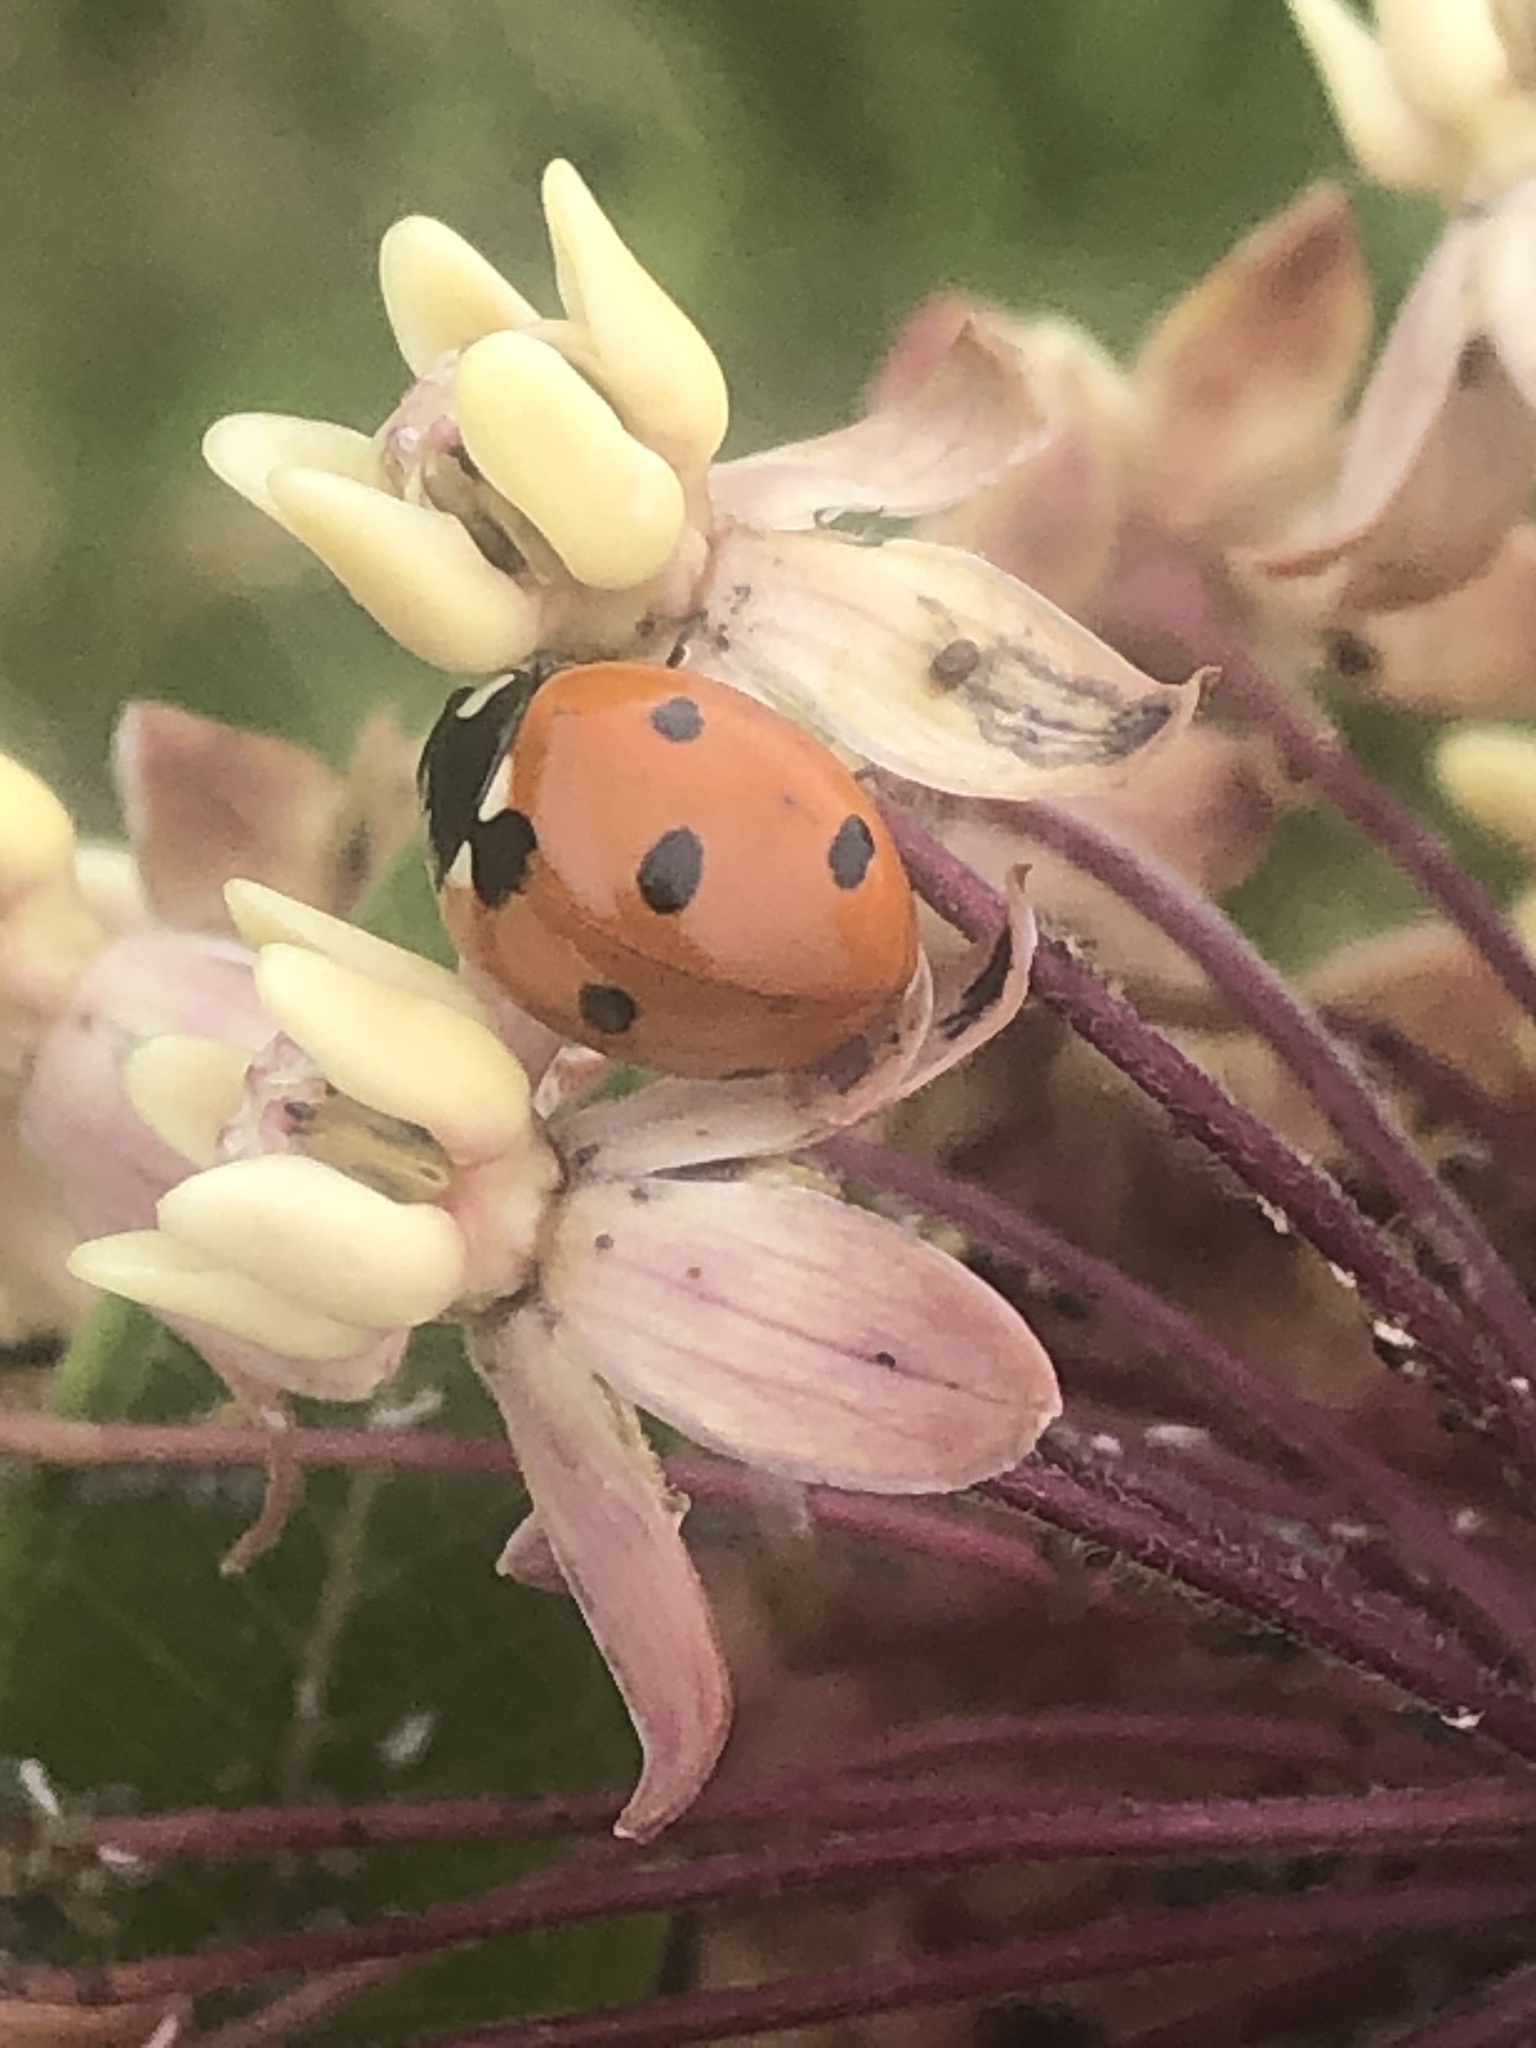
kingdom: Animalia
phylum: Arthropoda
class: Insecta
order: Coleoptera
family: Coccinellidae
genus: Coccinella
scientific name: Coccinella septempunctata
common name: Sevenspotted lady beetle
